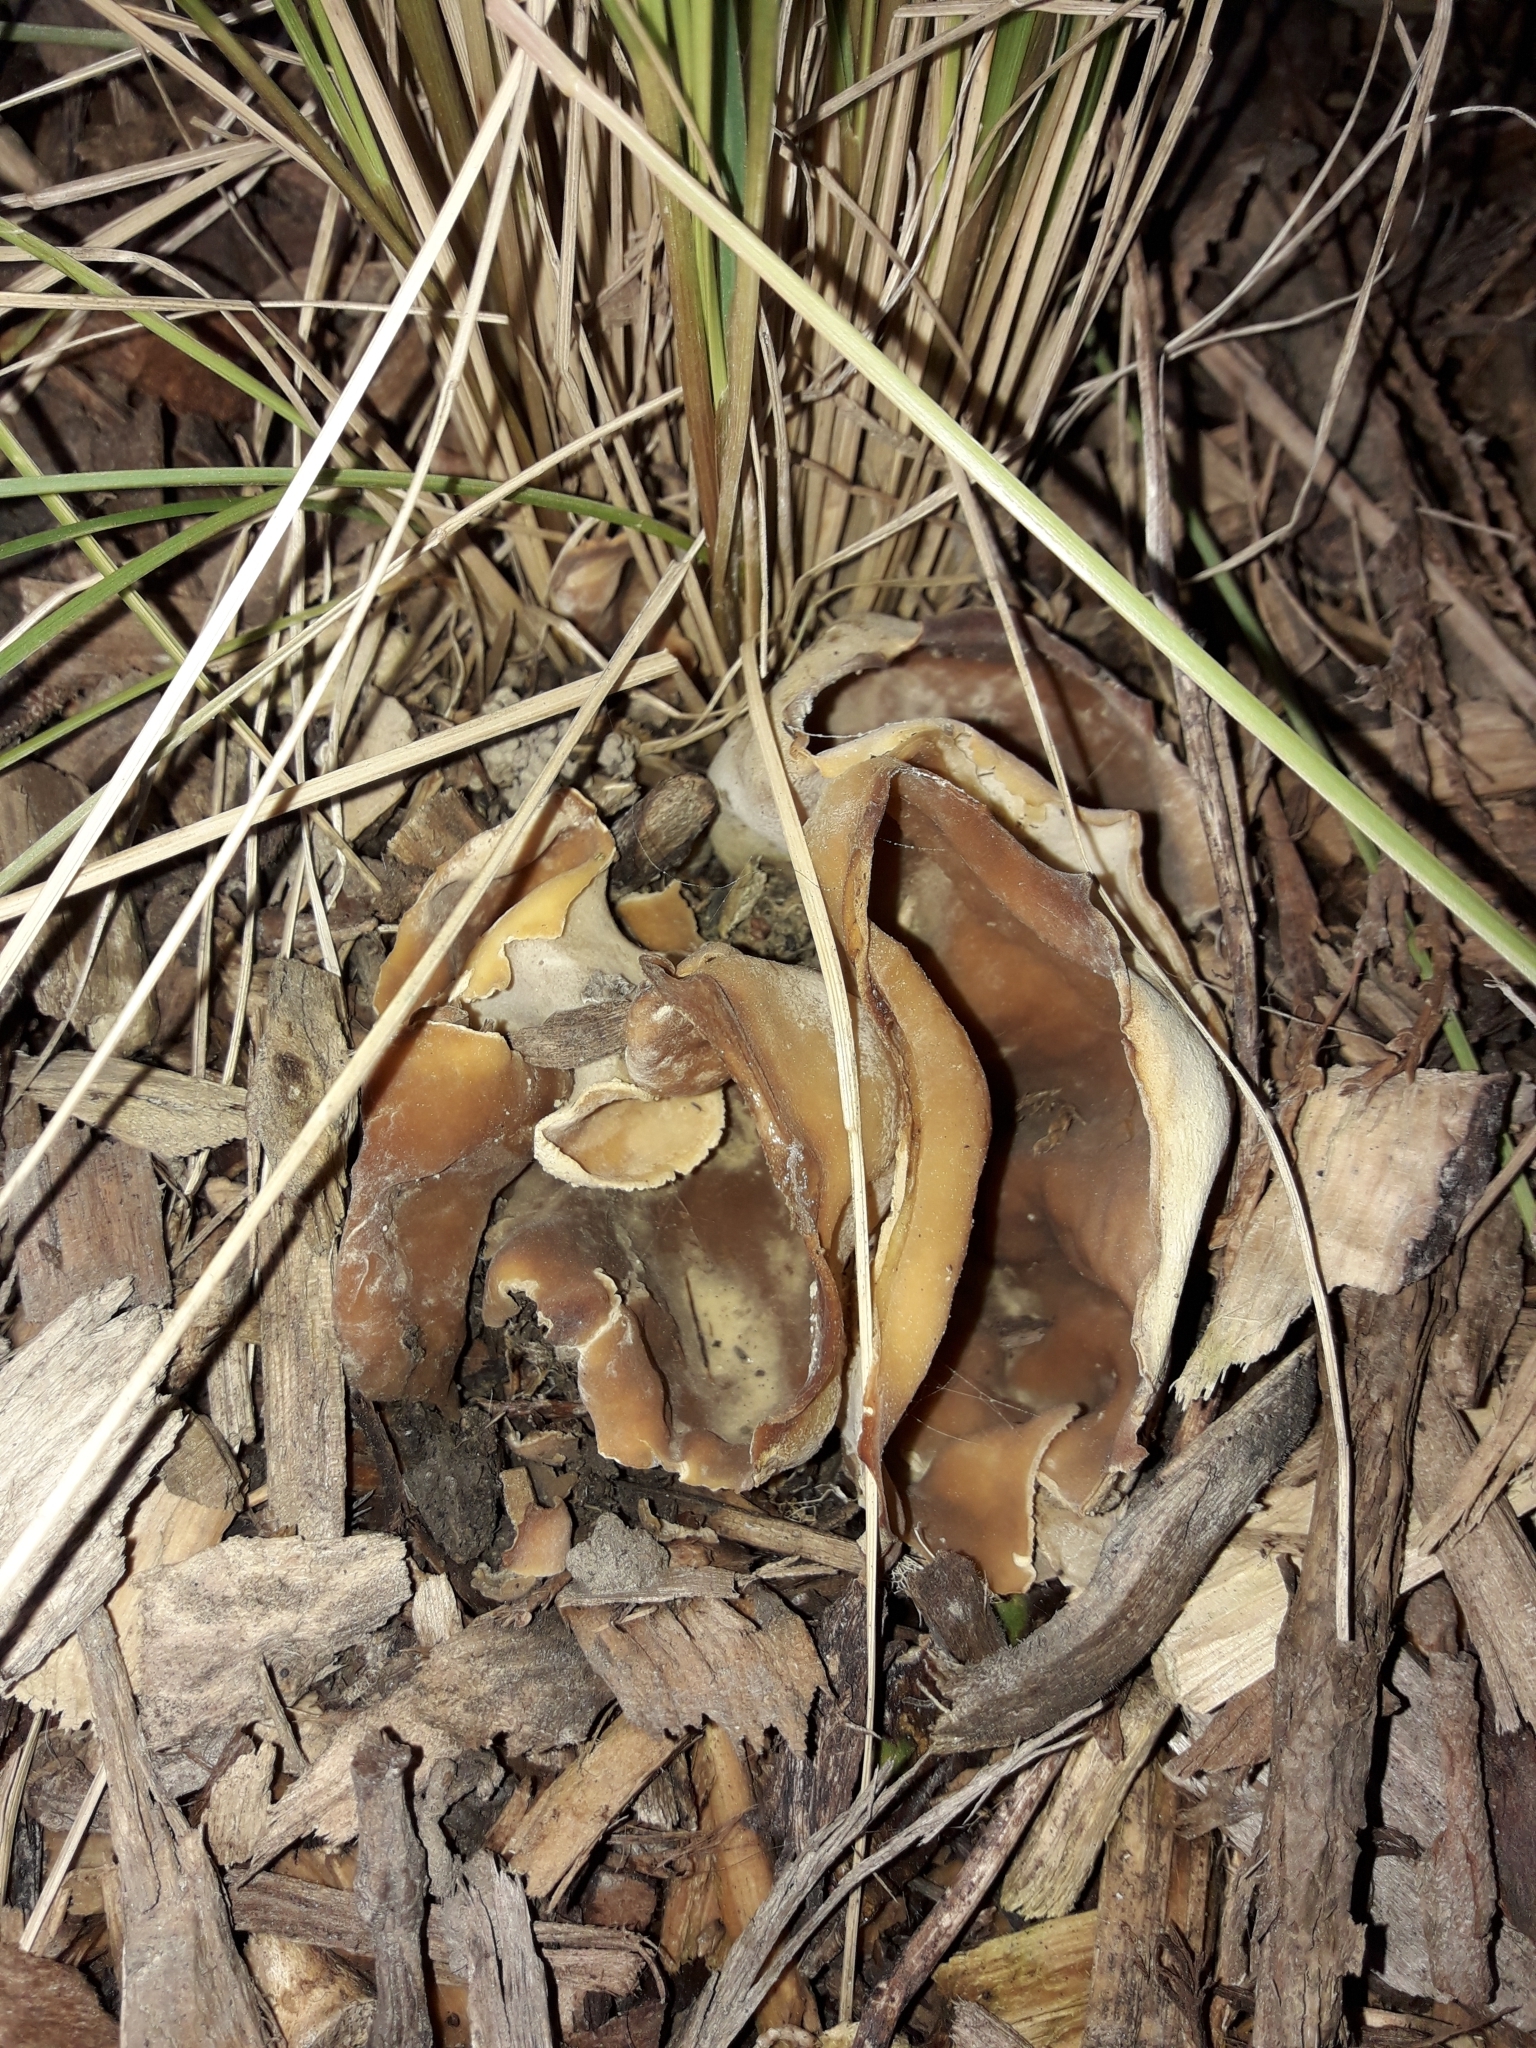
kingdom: Fungi
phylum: Ascomycota
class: Pezizomycetes
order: Pezizales
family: Pezizaceae
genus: Peziza
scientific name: Peziza varia
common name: Layered cup
